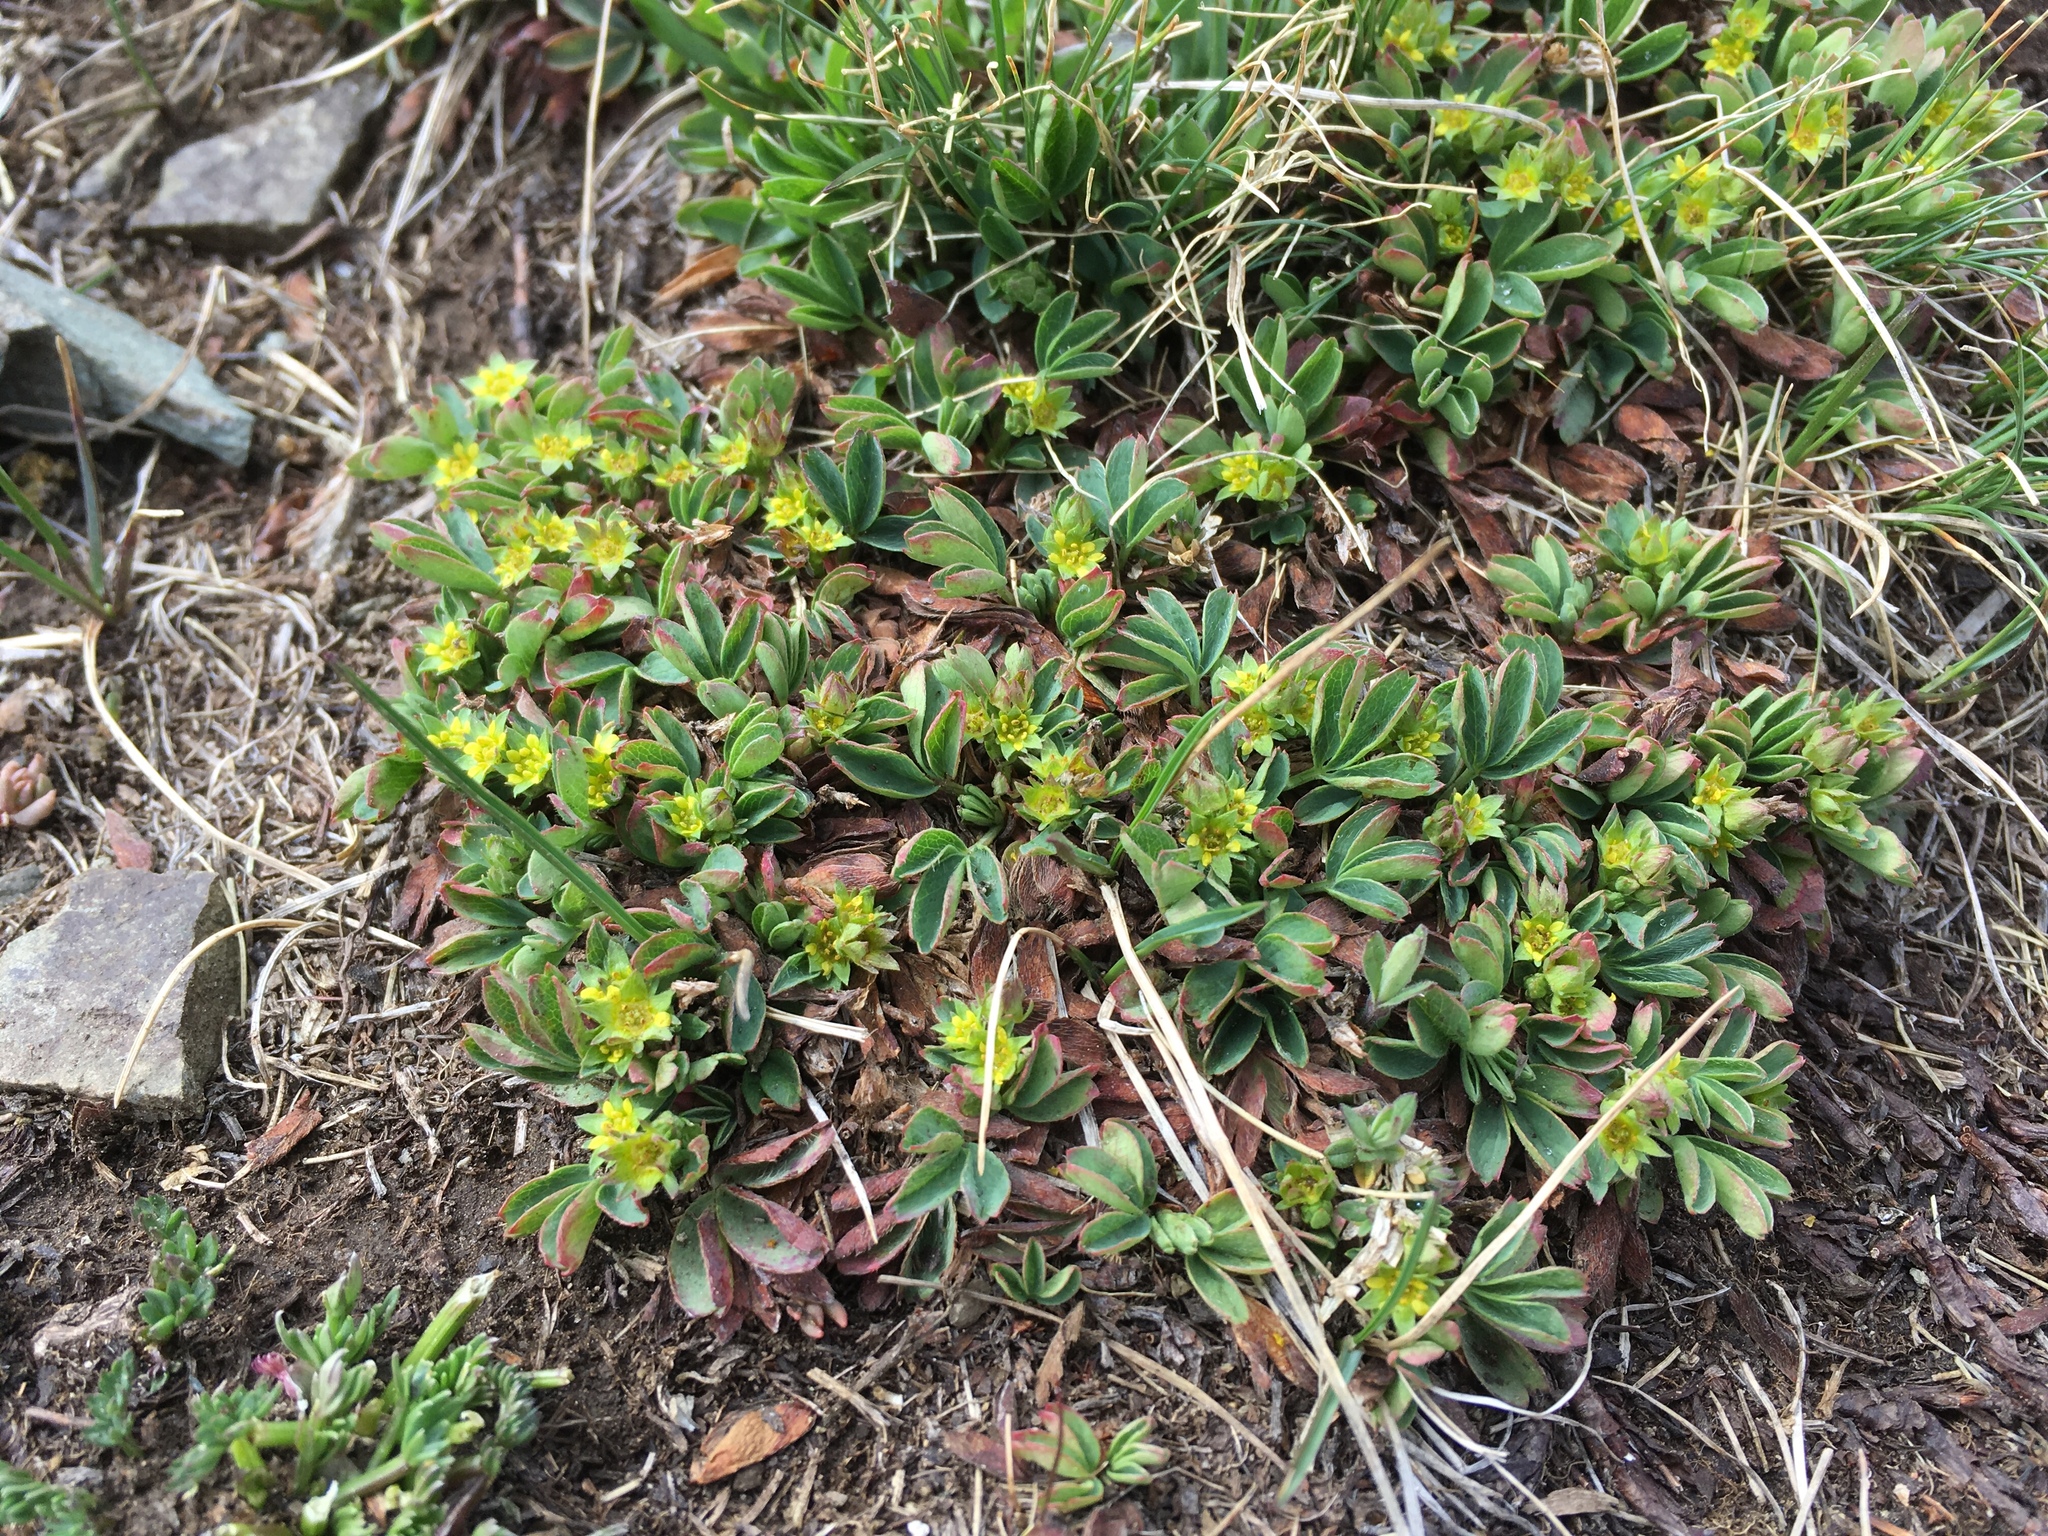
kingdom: Plantae
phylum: Tracheophyta
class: Magnoliopsida
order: Rosales
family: Rosaceae
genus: Sibbaldia
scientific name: Sibbaldia procumbens
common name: Creeping sibbaldia
